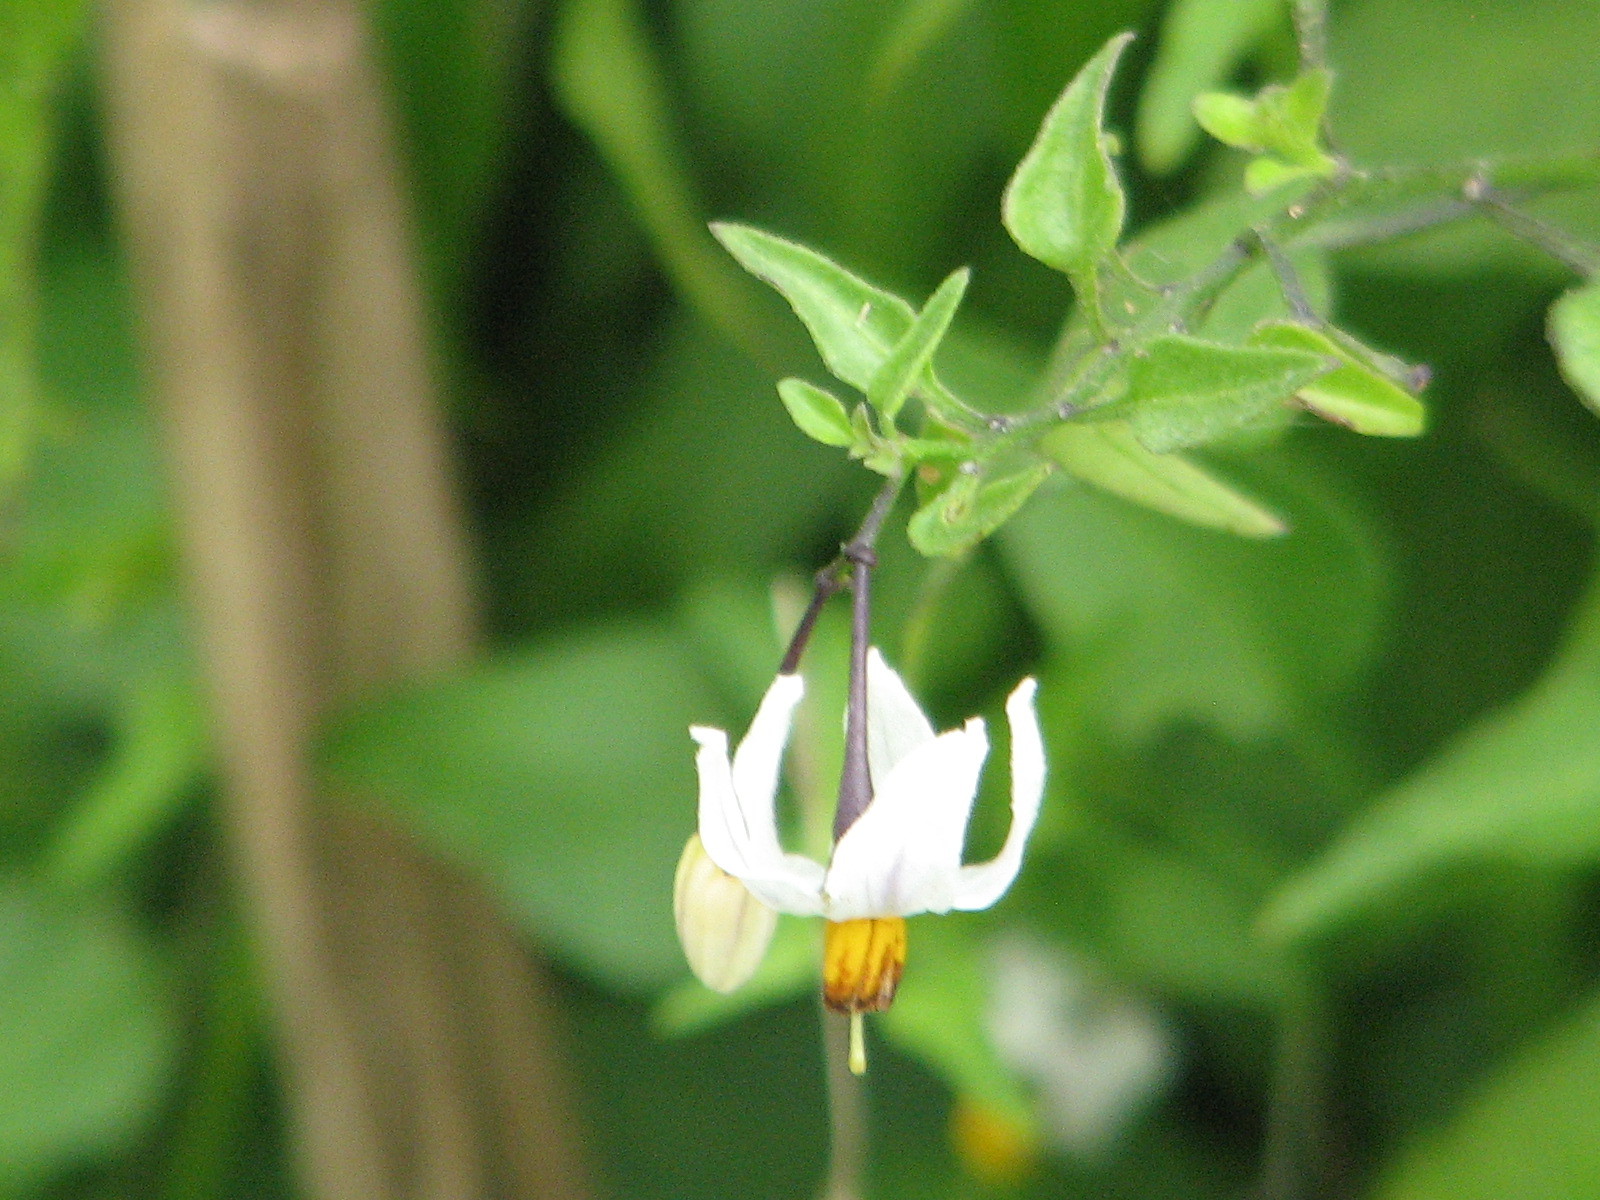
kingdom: Plantae
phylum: Tracheophyta
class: Magnoliopsida
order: Solanales
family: Solanaceae
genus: Solanum
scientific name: Solanum triquetrum
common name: Texas nightshade
